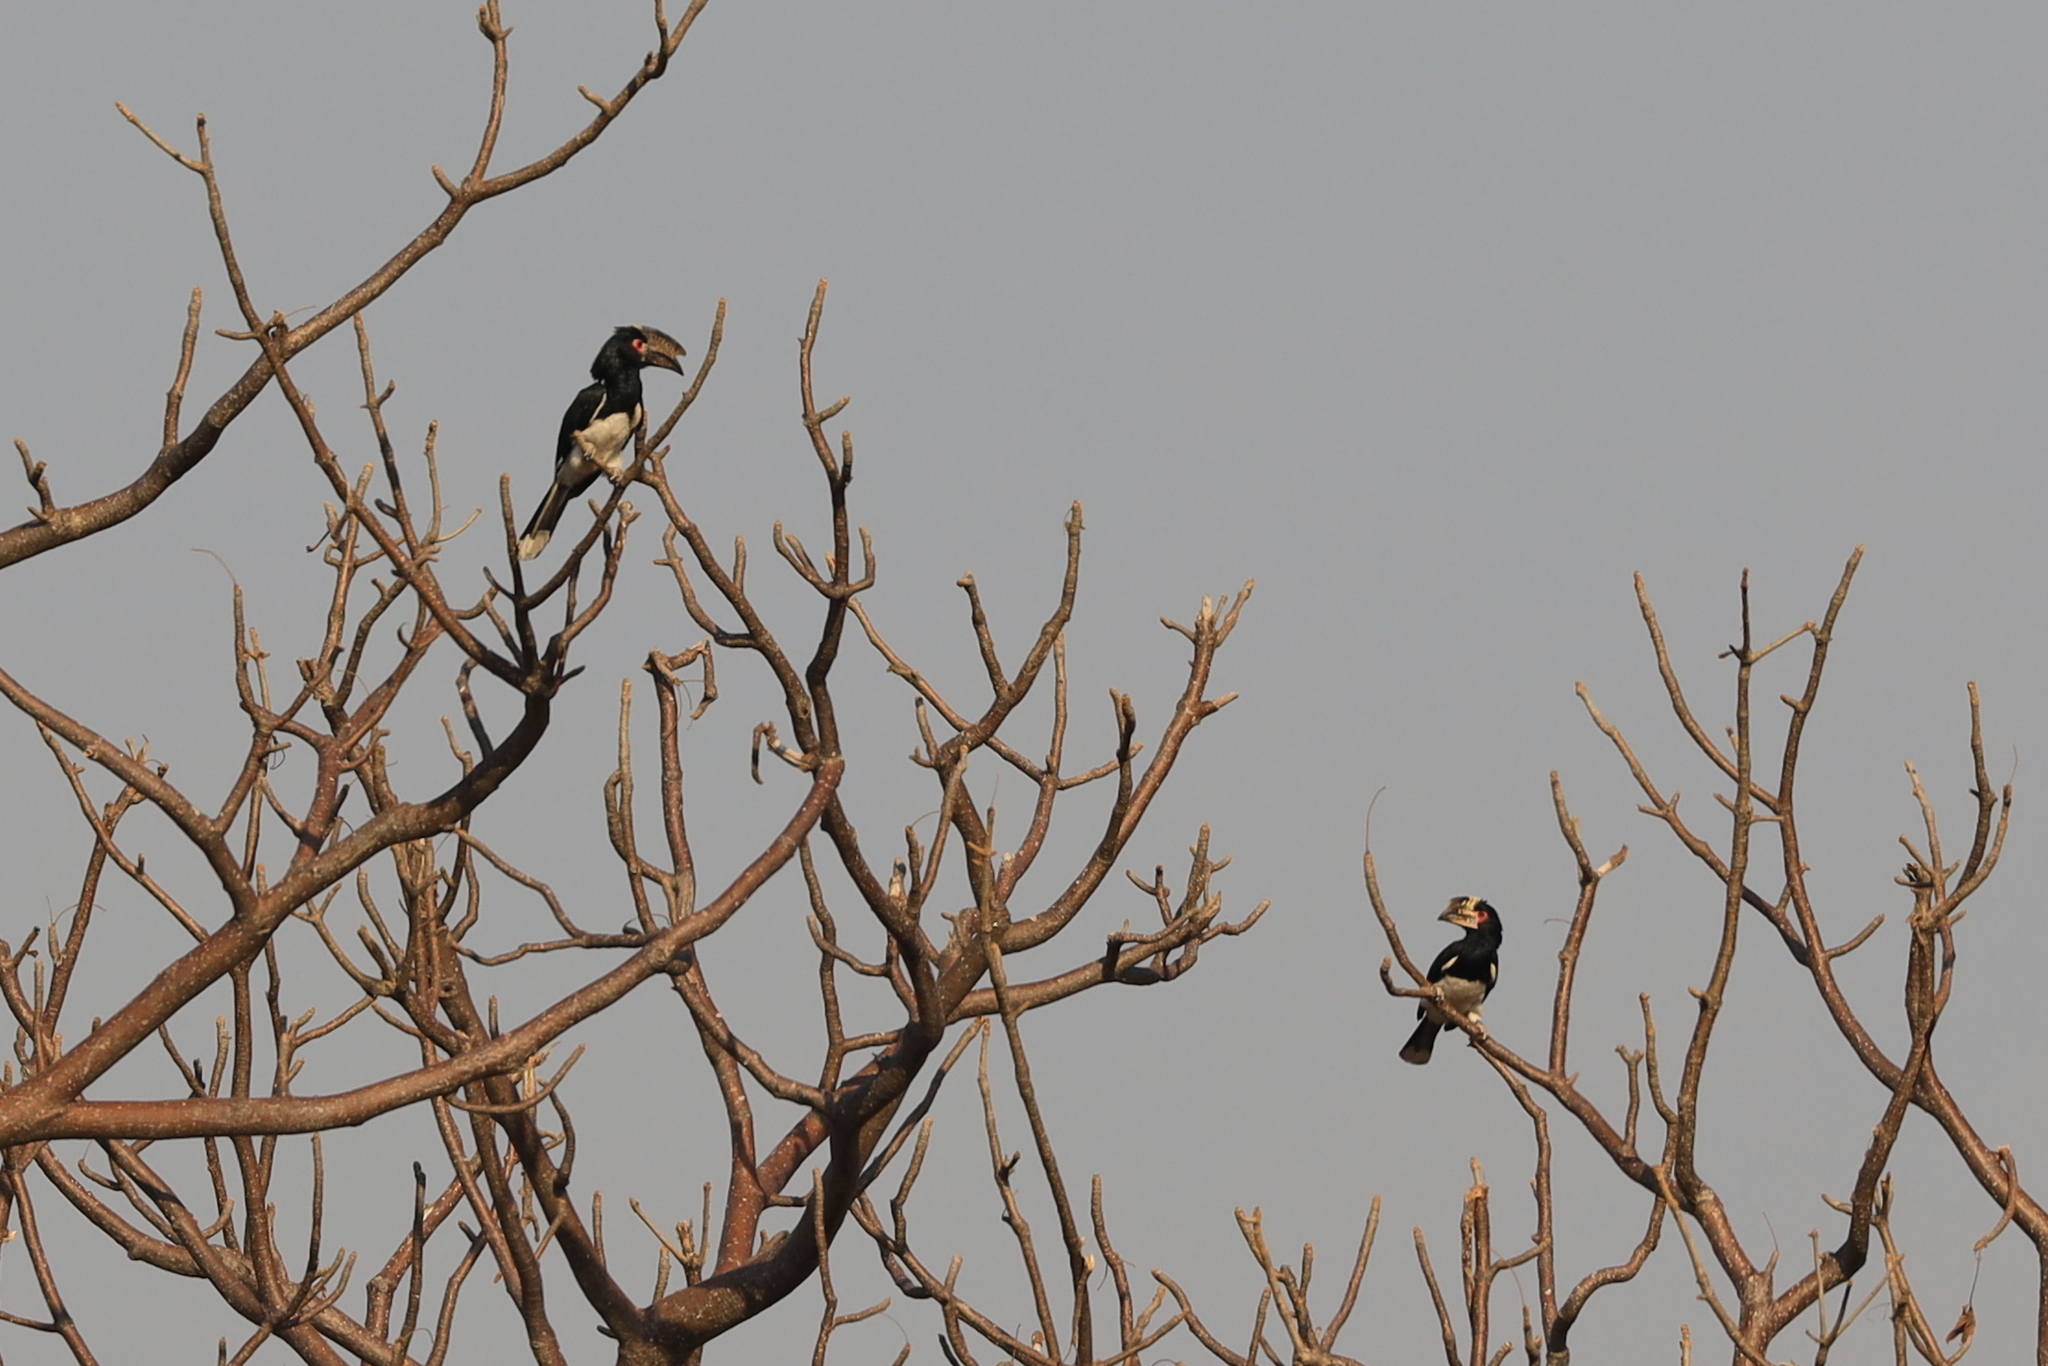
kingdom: Animalia
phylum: Chordata
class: Aves
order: Bucerotiformes
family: Bucerotidae
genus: Bycanistes
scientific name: Bycanistes bucinator
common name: Trumpeter hornbill
